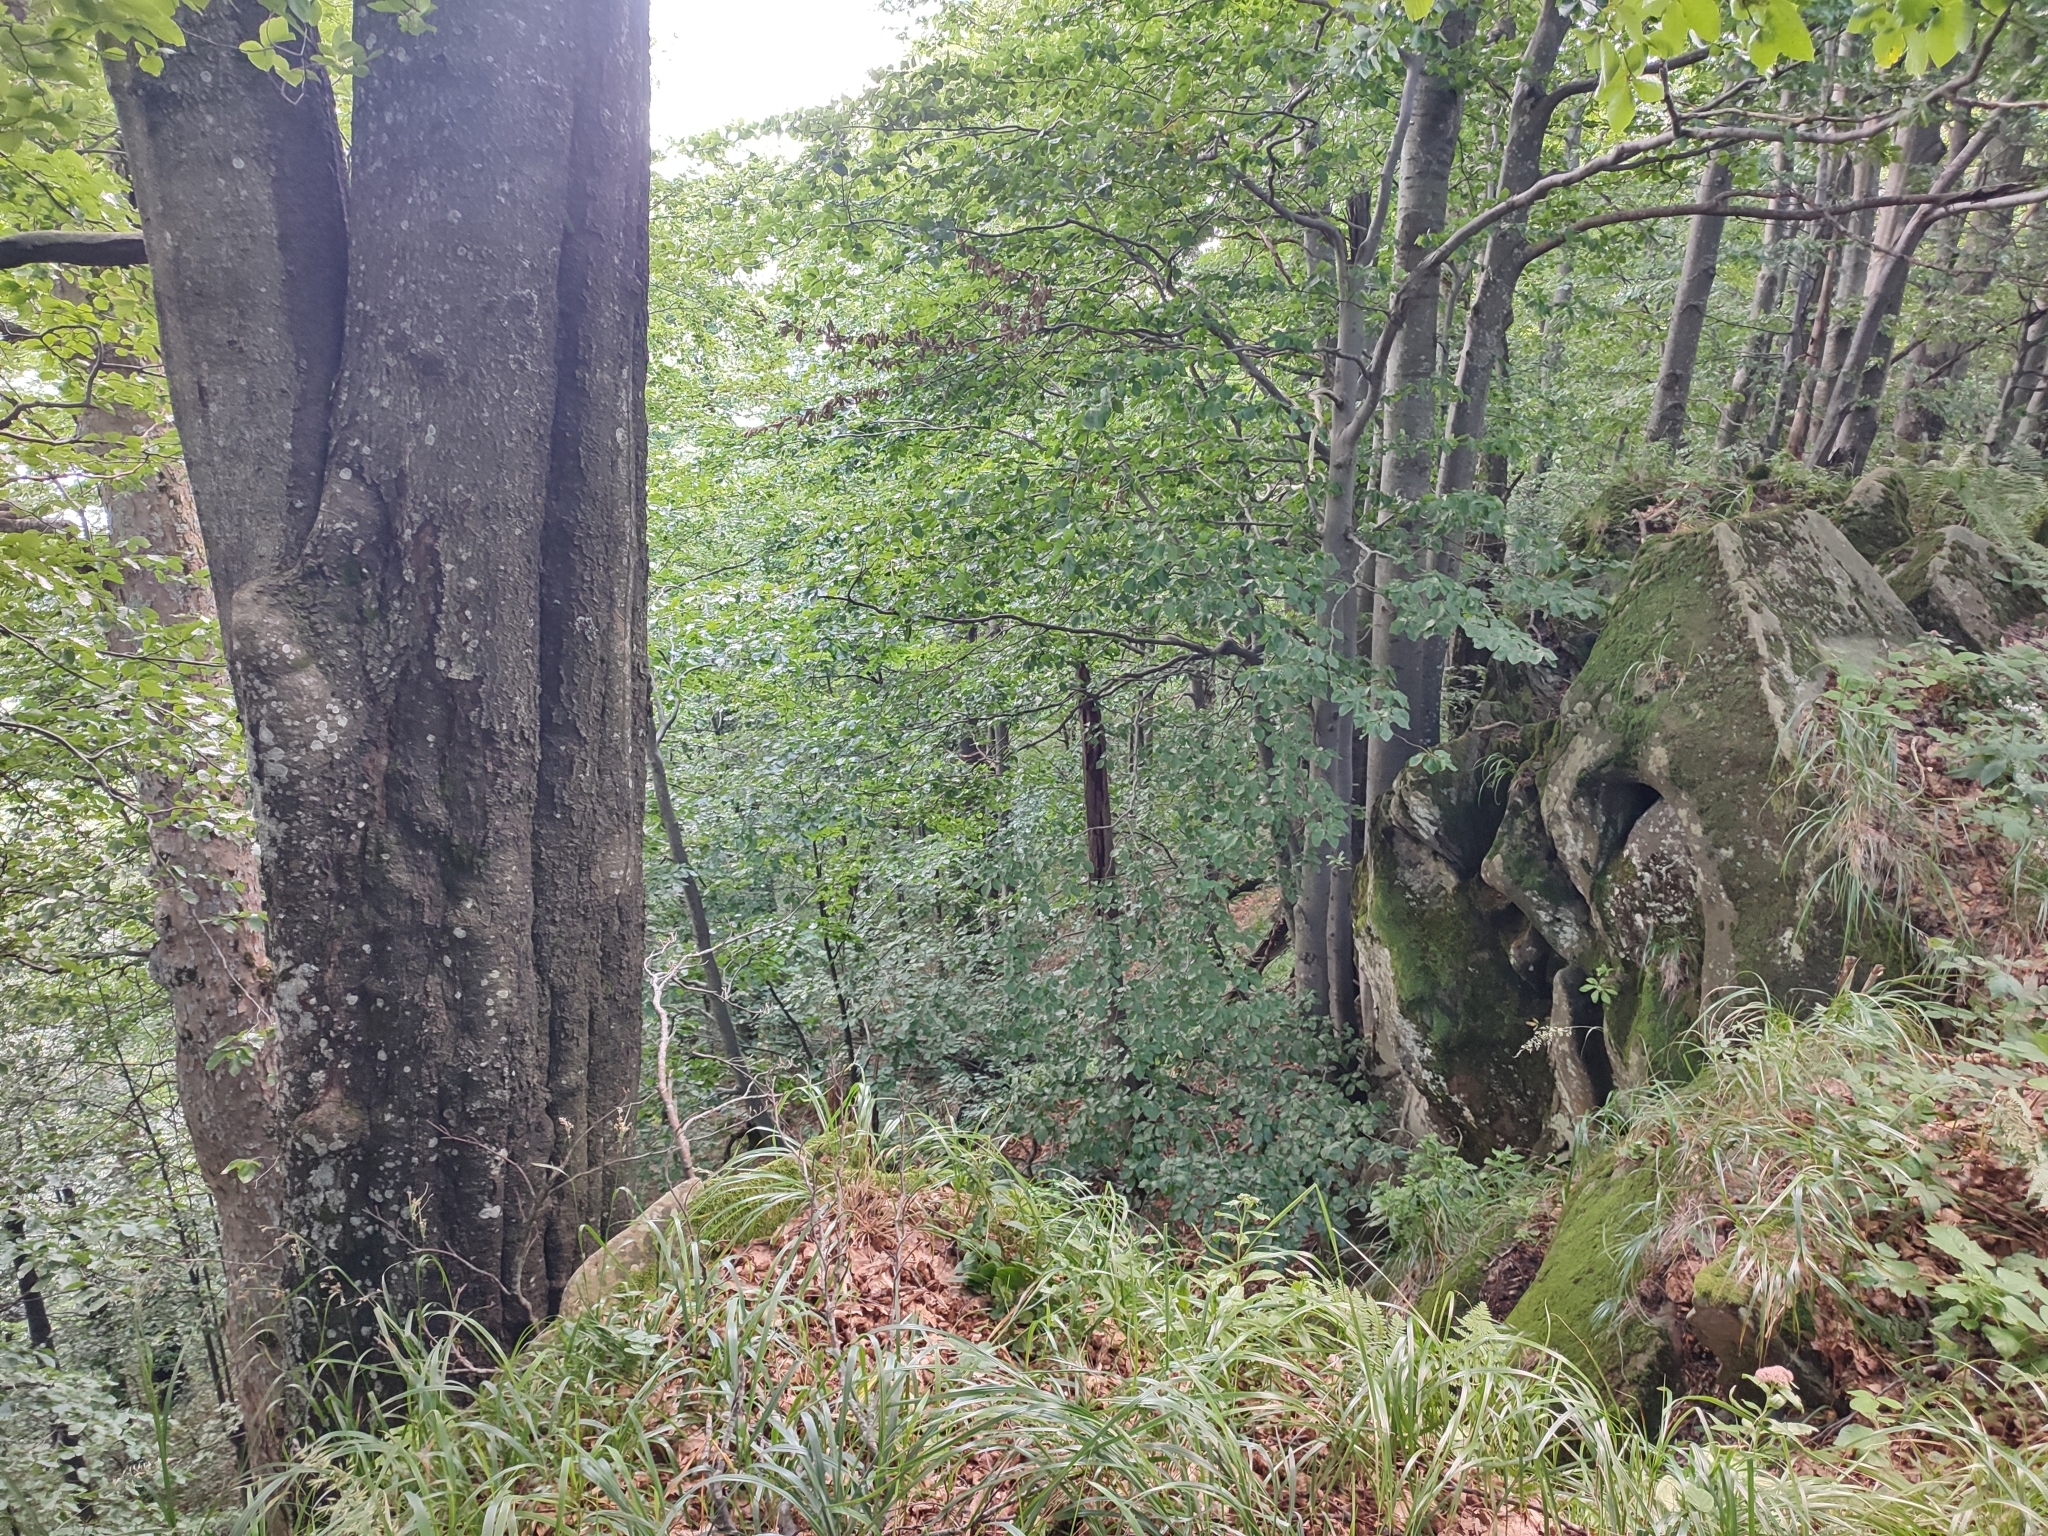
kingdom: Plantae
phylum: Tracheophyta
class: Magnoliopsida
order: Fagales
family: Fagaceae
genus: Fagus
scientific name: Fagus sylvatica
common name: Beech
